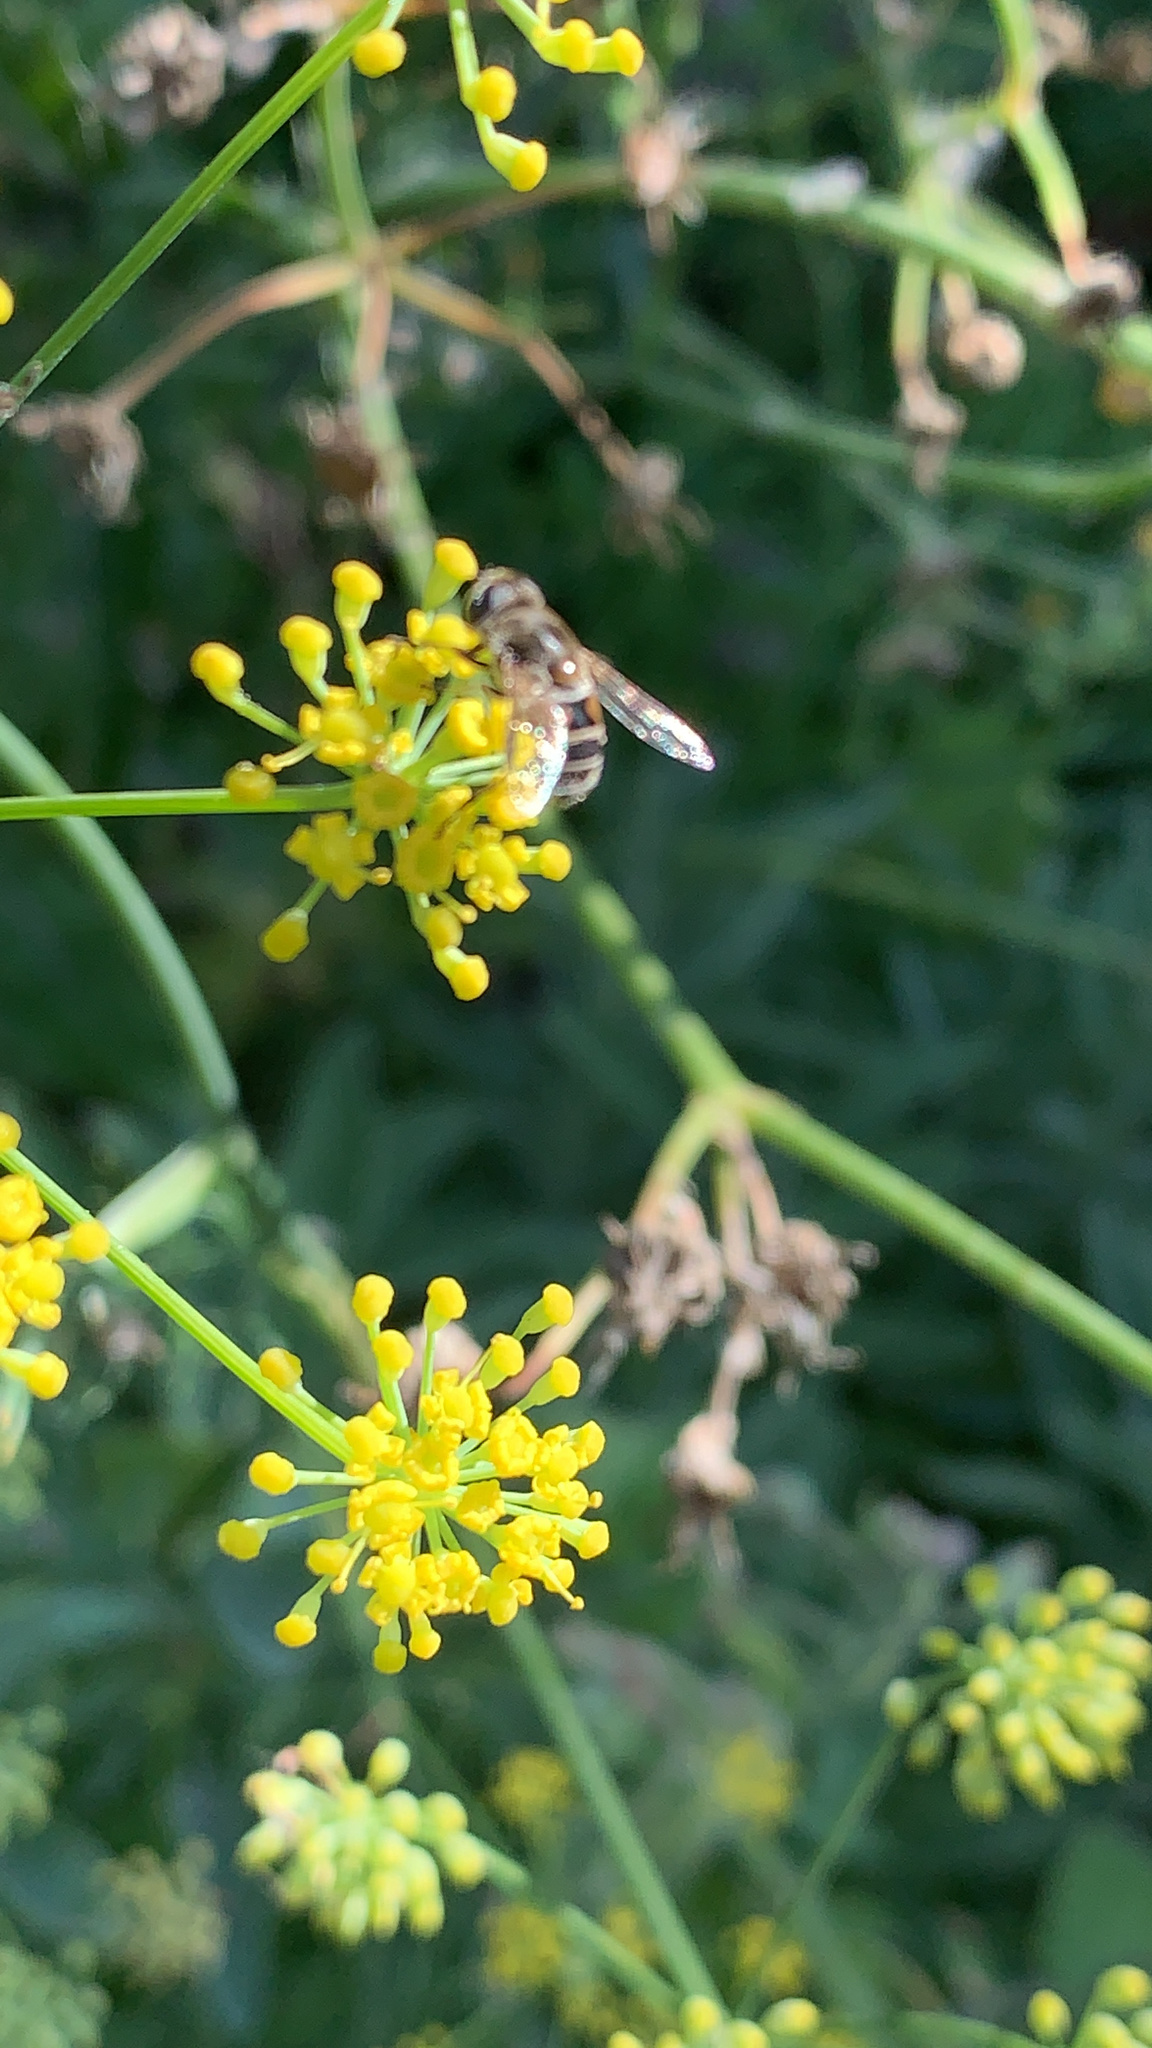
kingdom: Animalia
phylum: Arthropoda
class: Insecta
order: Diptera
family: Syrphidae
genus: Eristalis
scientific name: Eristalis arbustorum
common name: Hover fly
